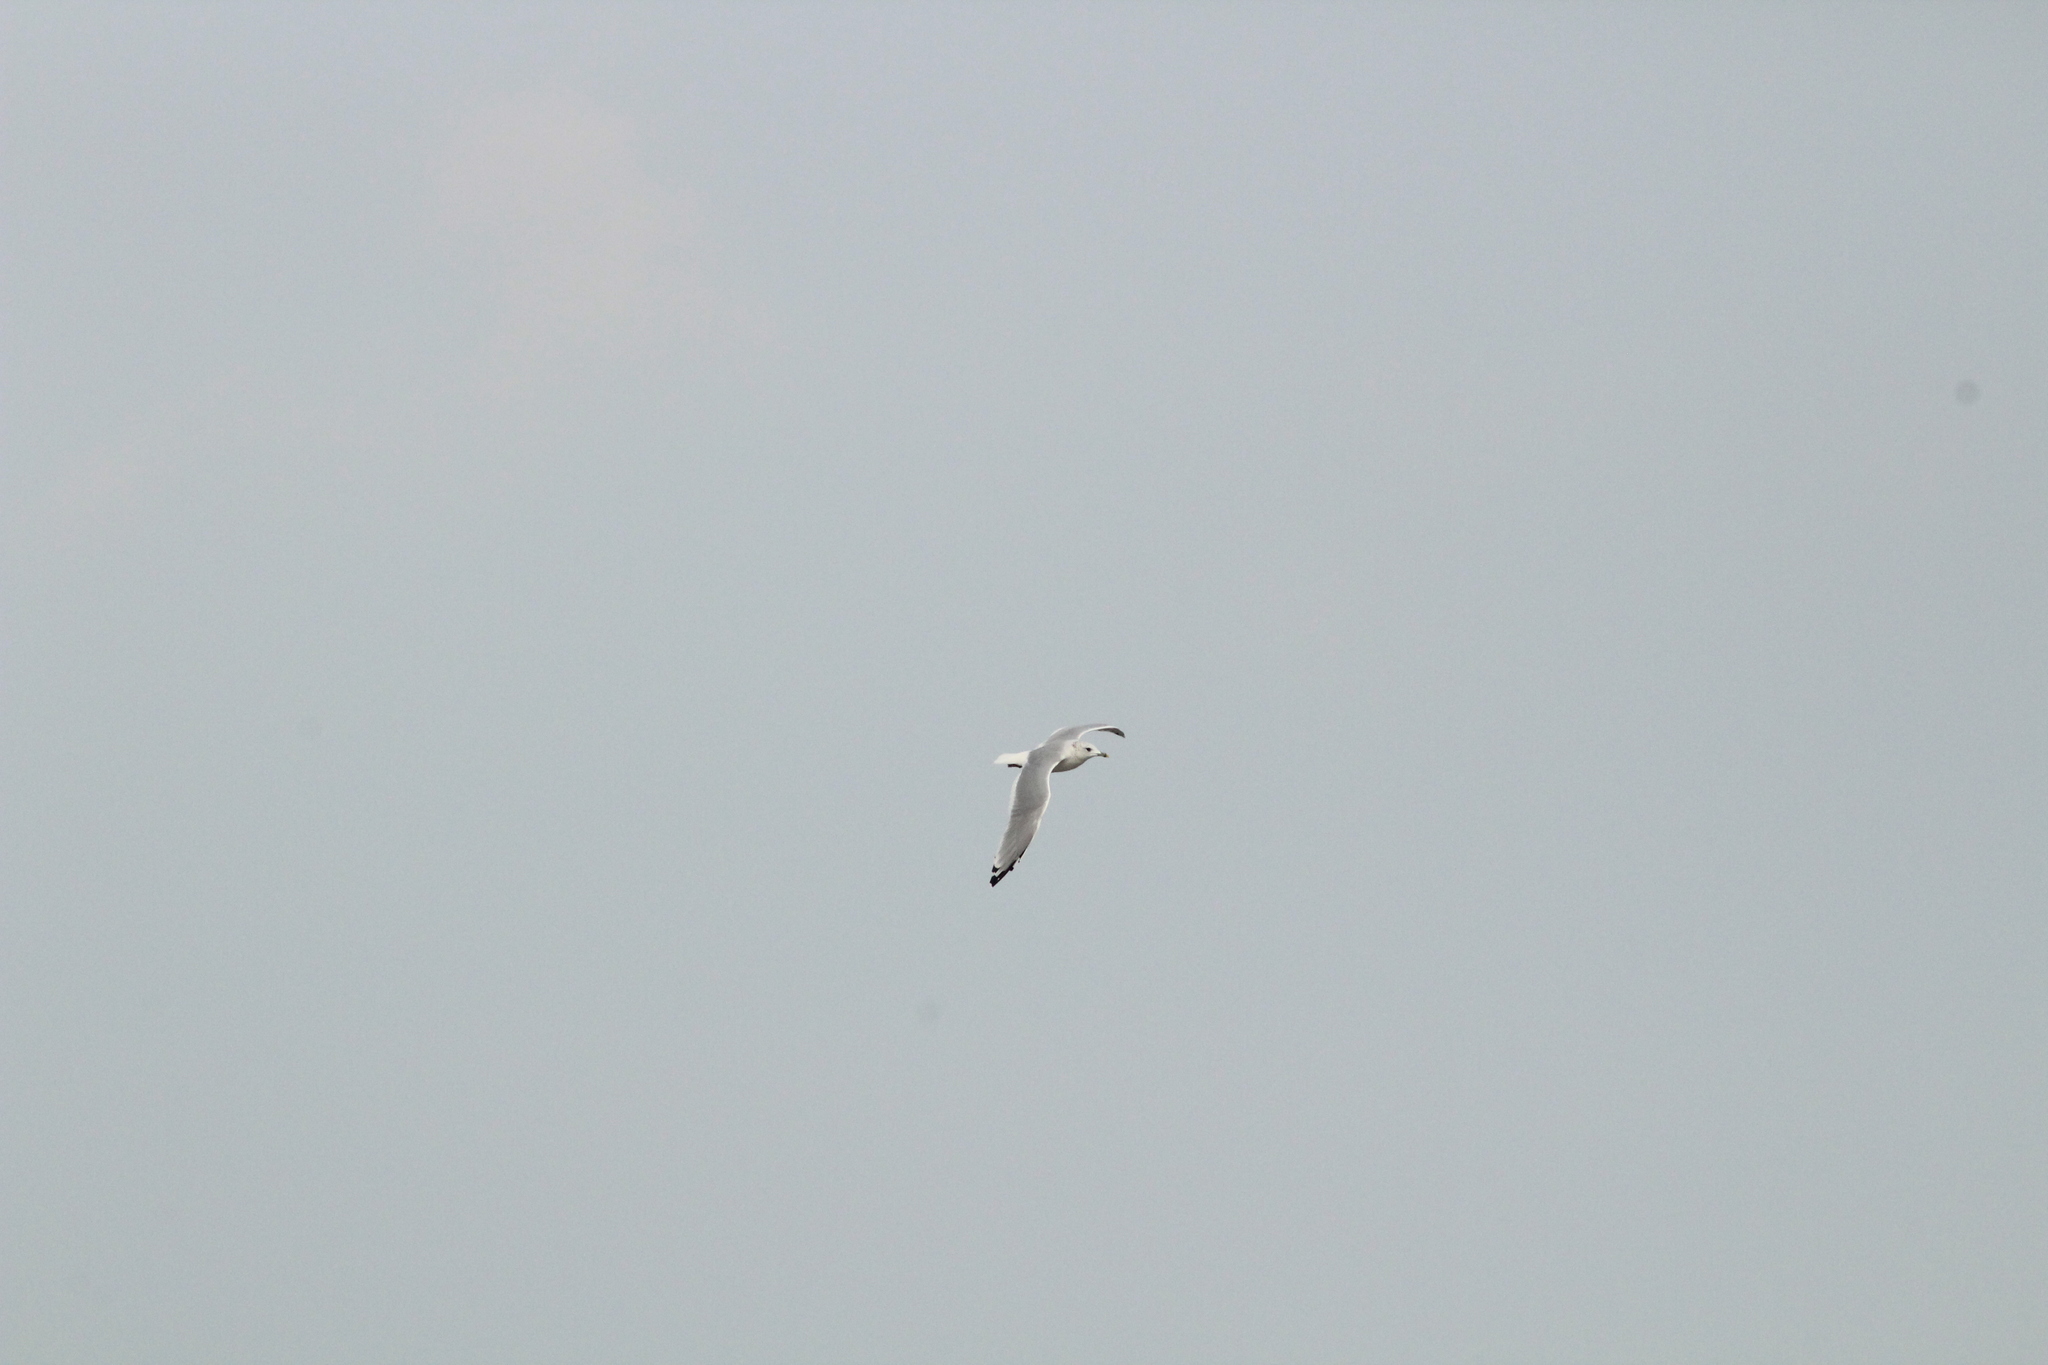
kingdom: Animalia
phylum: Chordata
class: Aves
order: Charadriiformes
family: Laridae
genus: Larus
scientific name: Larus canus
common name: Mew gull
